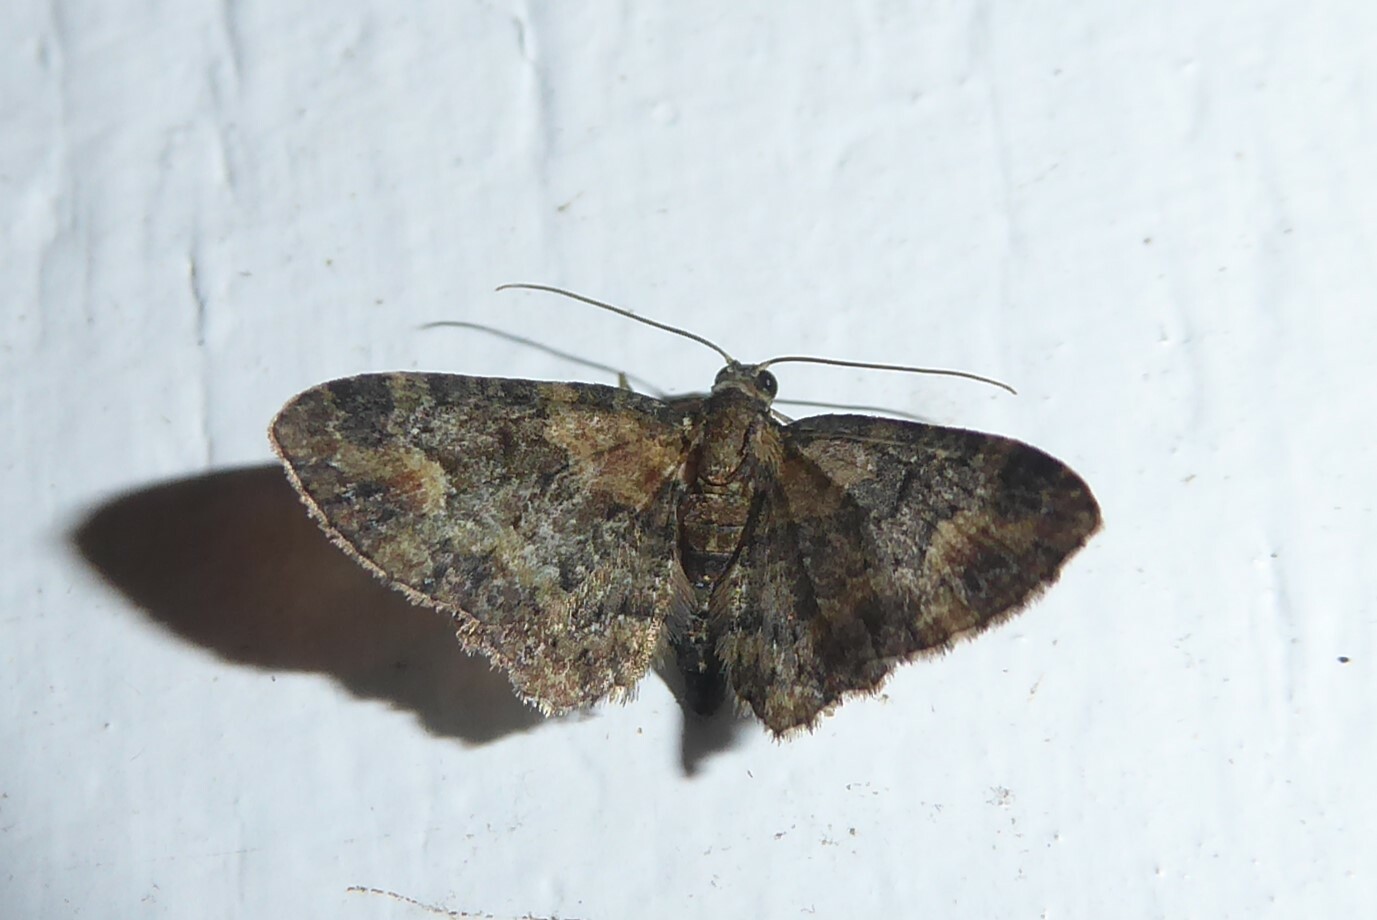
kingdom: Animalia
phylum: Arthropoda
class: Insecta
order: Lepidoptera
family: Geometridae
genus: Pasiphilodes
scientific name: Pasiphilodes testulata
